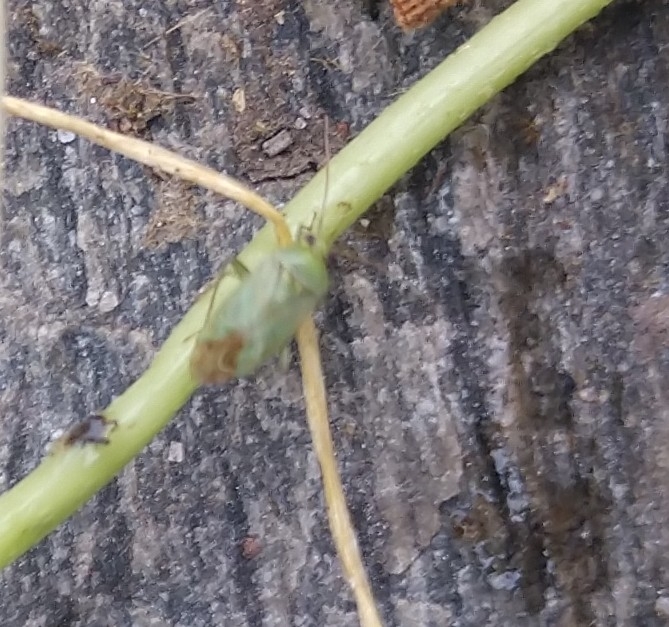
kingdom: Animalia
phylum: Arthropoda
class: Insecta
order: Hemiptera
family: Miridae
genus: Taylorilygus
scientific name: Taylorilygus apicalis
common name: Plant bug
